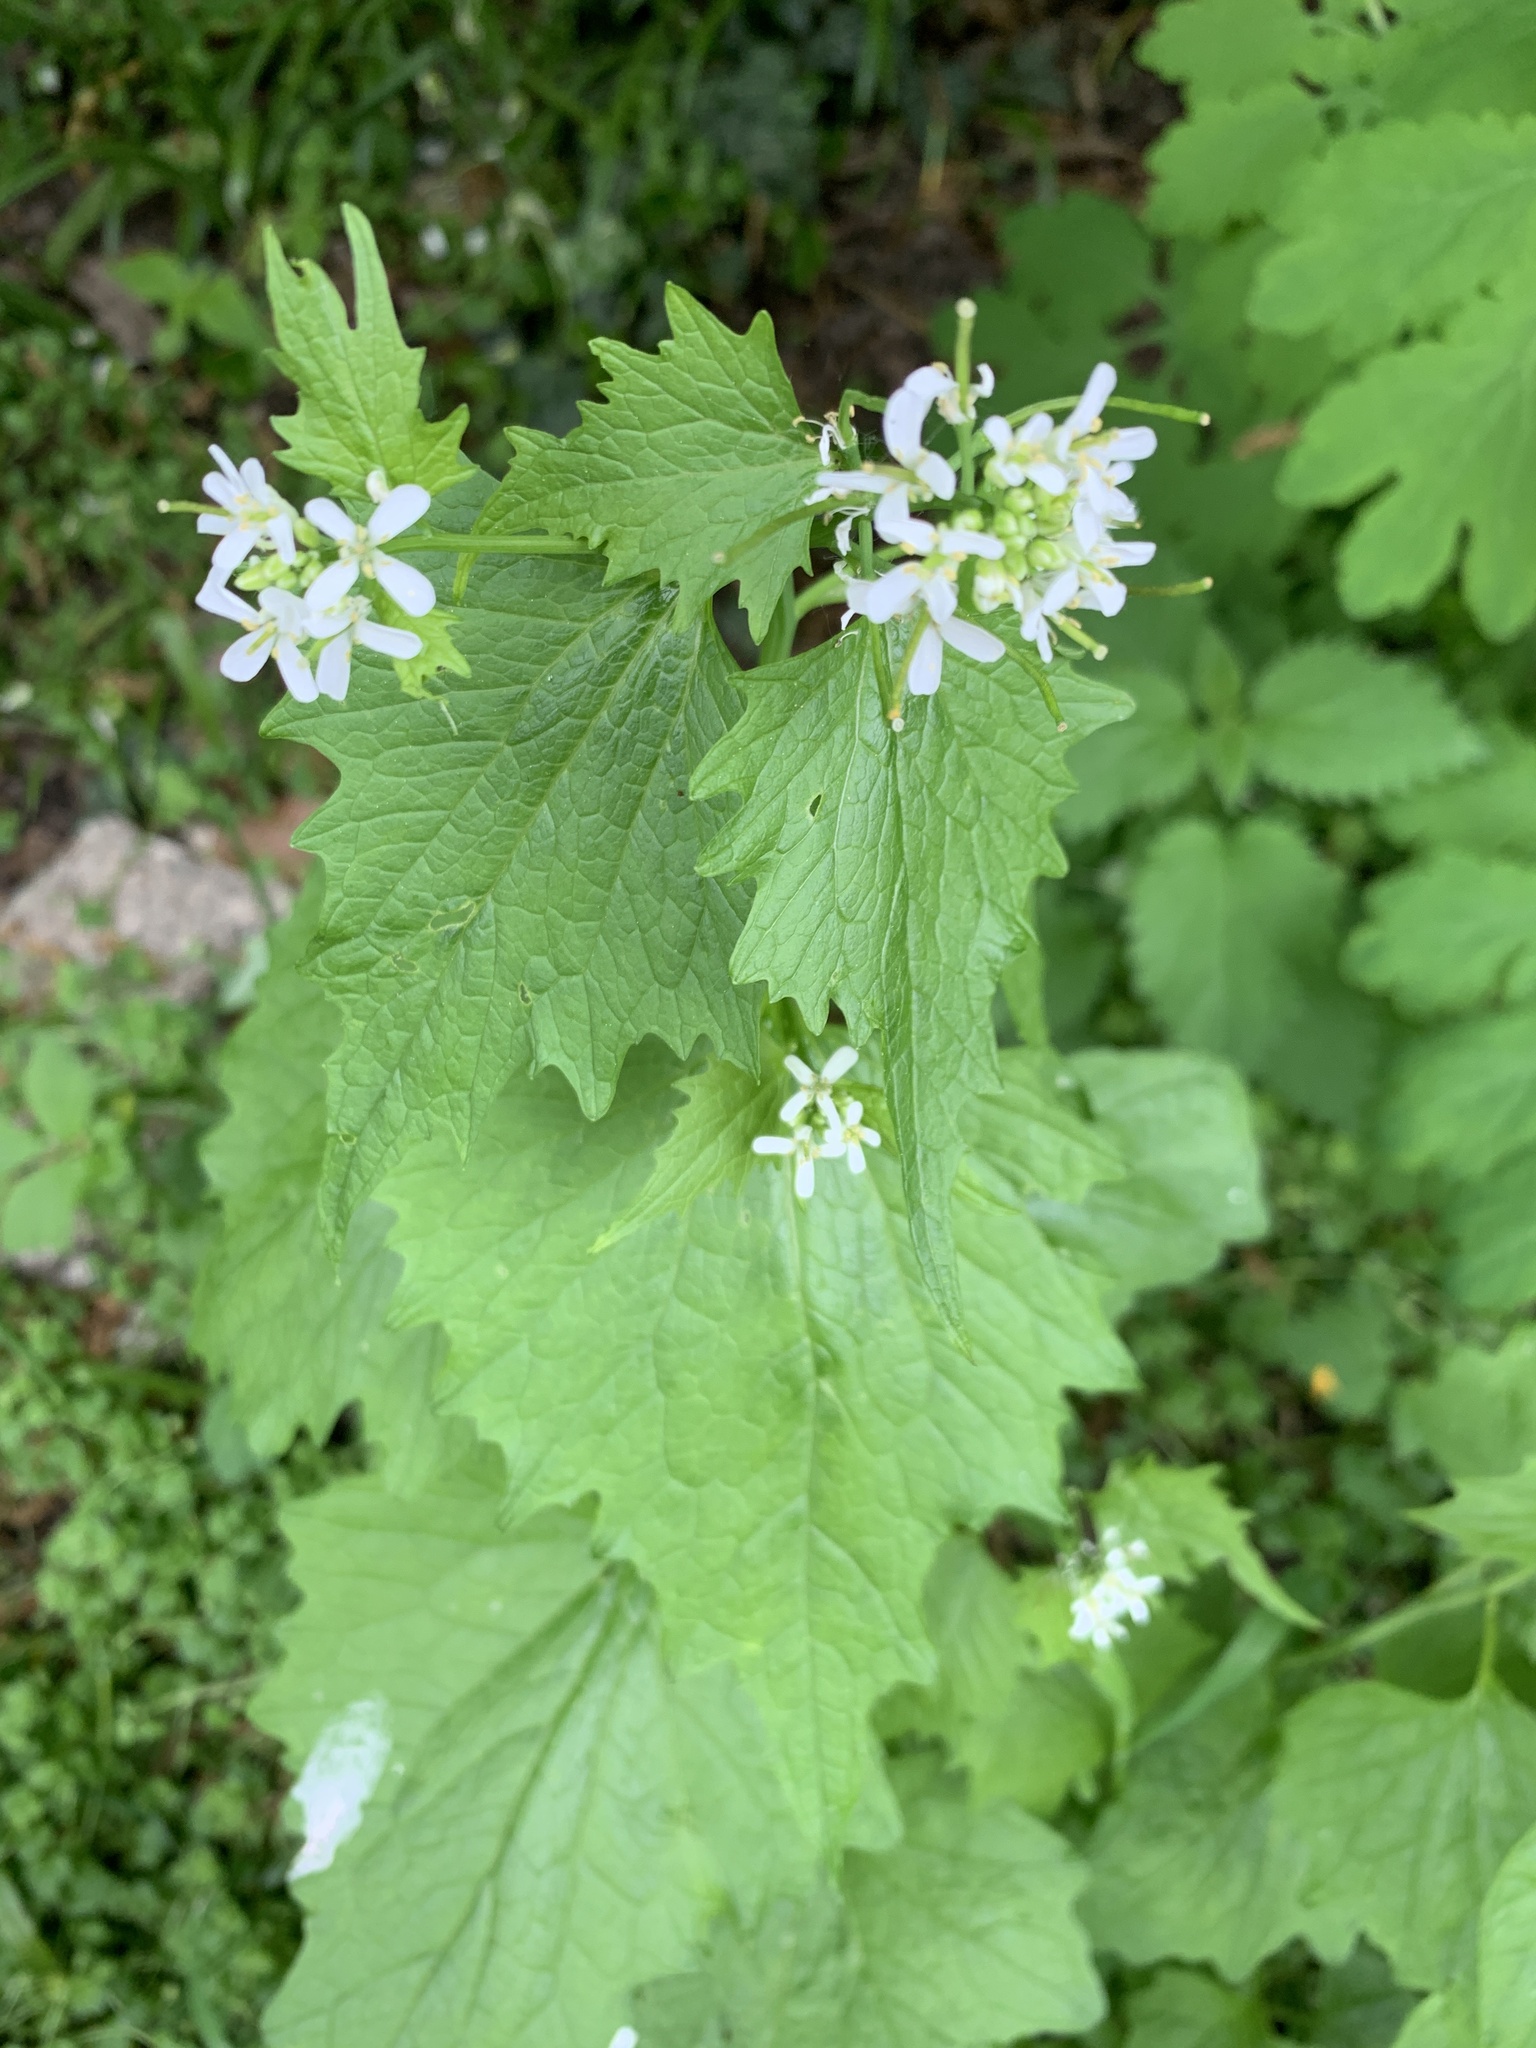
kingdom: Plantae
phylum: Tracheophyta
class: Magnoliopsida
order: Brassicales
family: Brassicaceae
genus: Alliaria
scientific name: Alliaria petiolata
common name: Garlic mustard
